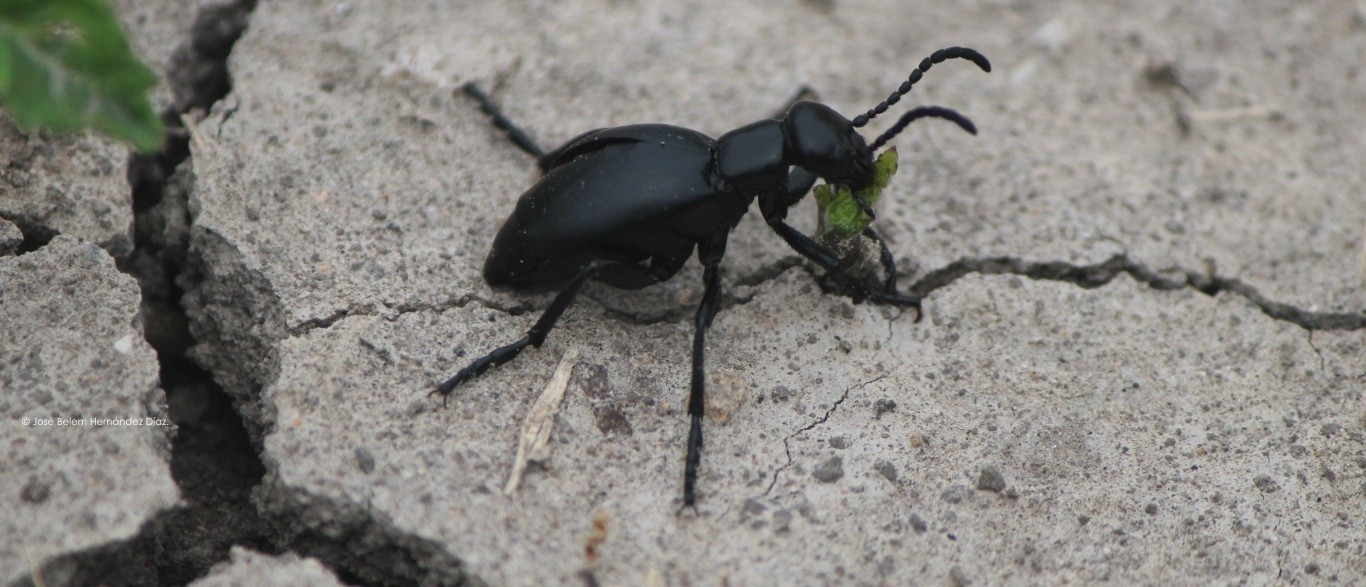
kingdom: Animalia
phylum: Arthropoda
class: Insecta
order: Coleoptera
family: Meloidae
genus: Meloe
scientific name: Meloe laevis
